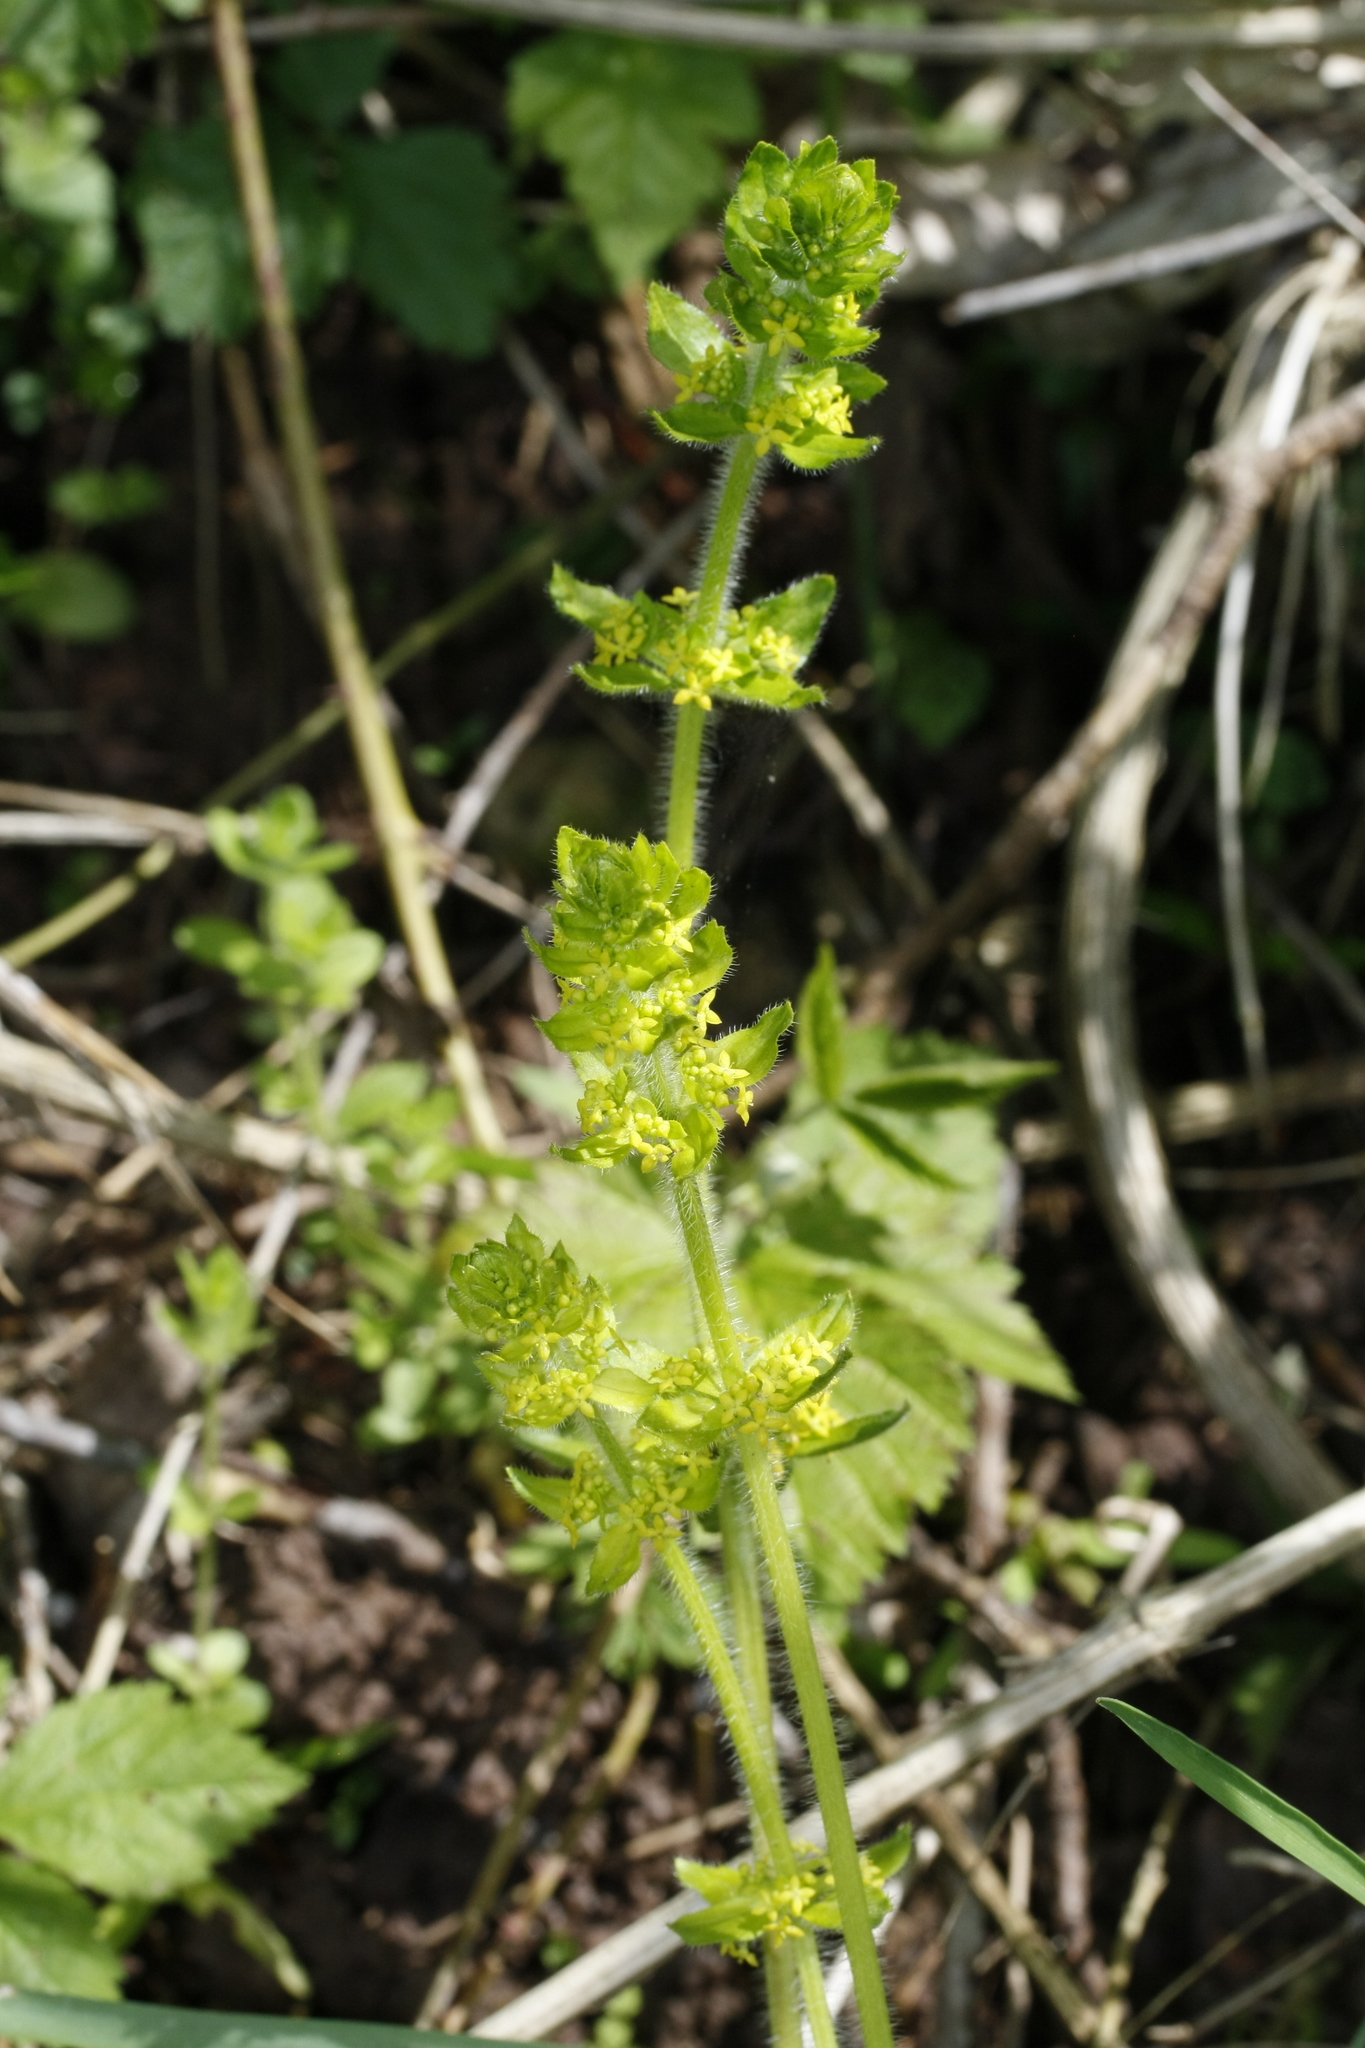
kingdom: Plantae
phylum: Tracheophyta
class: Magnoliopsida
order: Gentianales
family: Rubiaceae
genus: Cruciata
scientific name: Cruciata laevipes
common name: Crosswort
